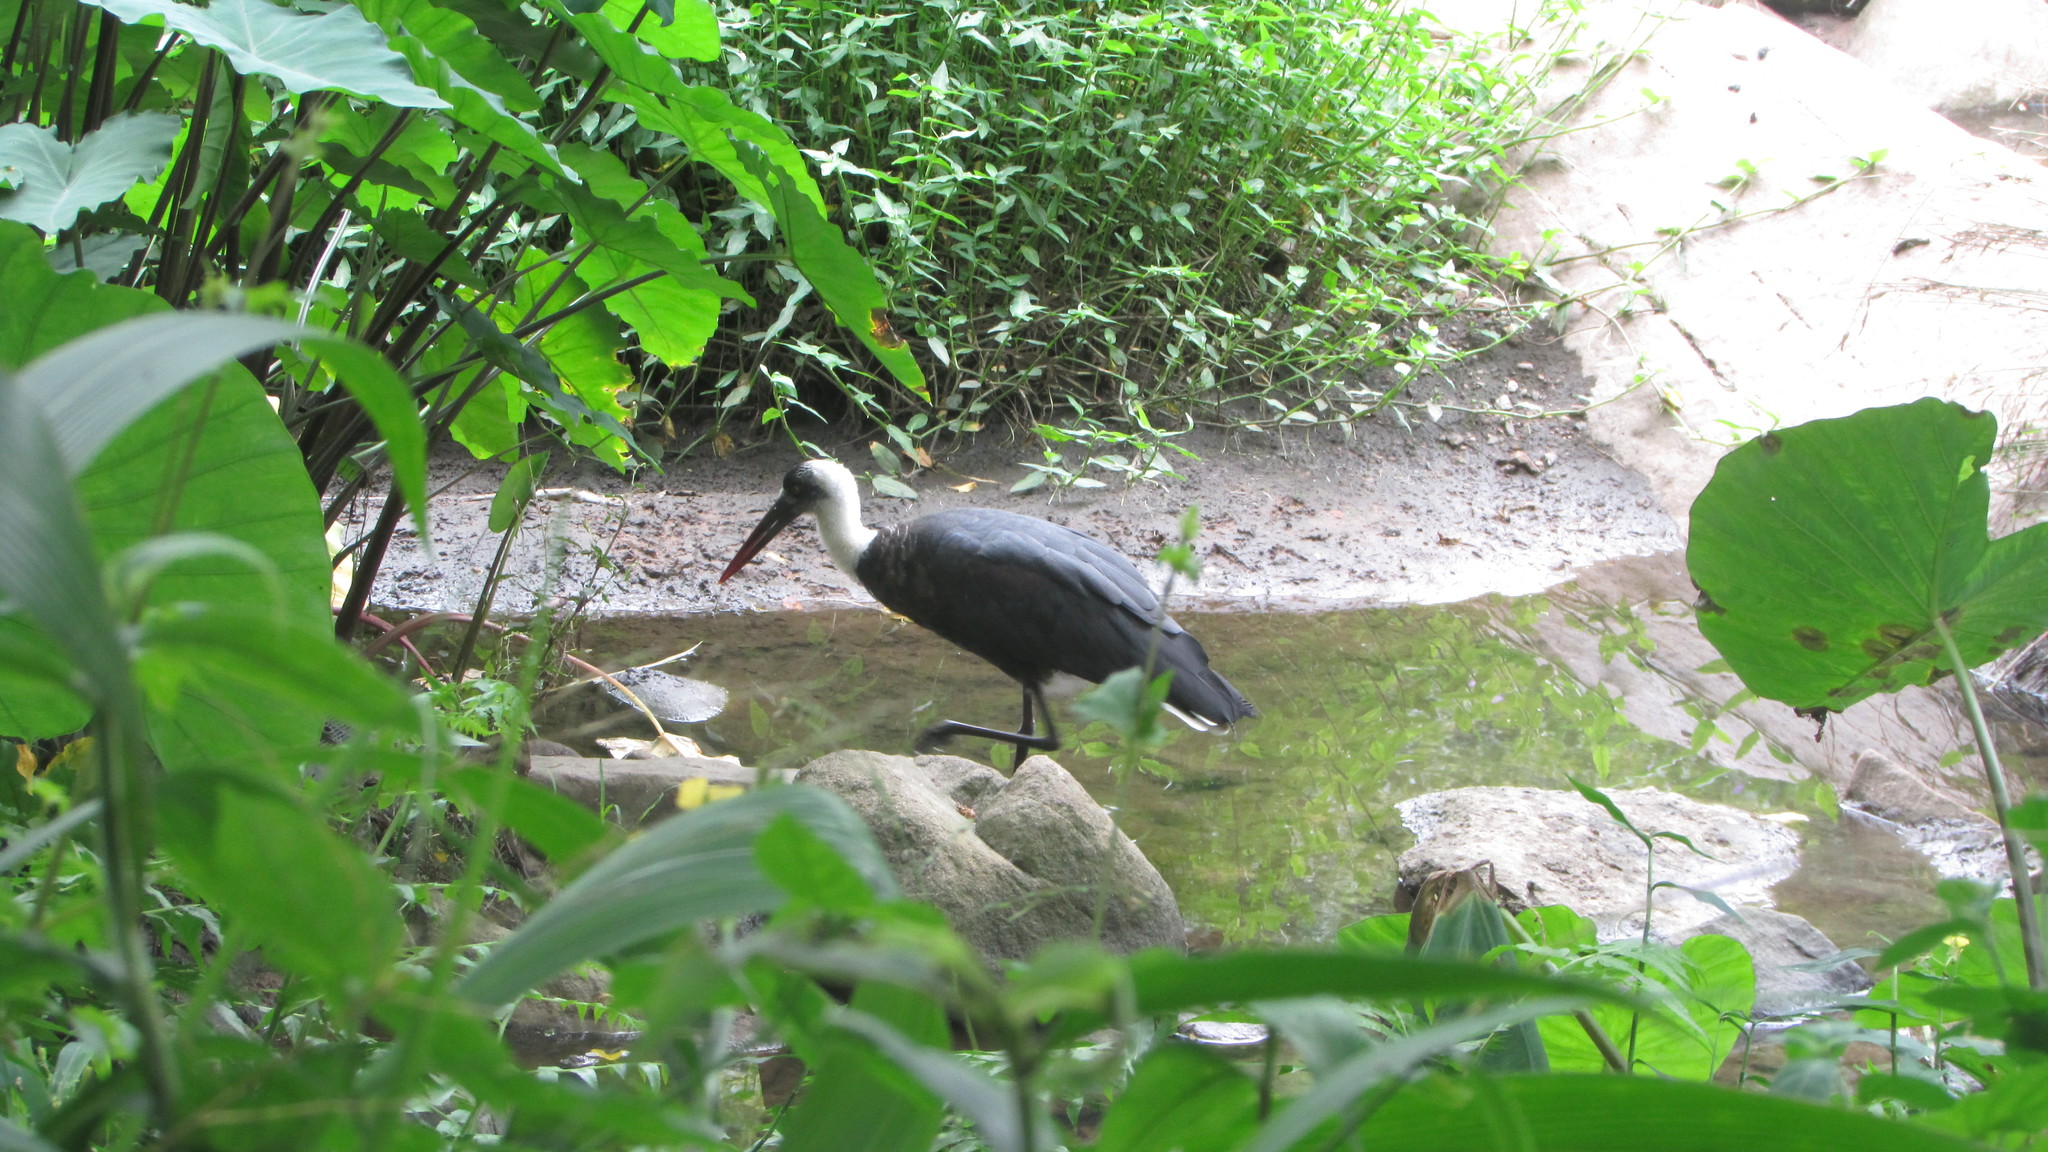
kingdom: Animalia
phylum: Chordata
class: Aves
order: Ciconiiformes
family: Ciconiidae
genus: Ciconia
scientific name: Ciconia microscelis
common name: African woollyneck
